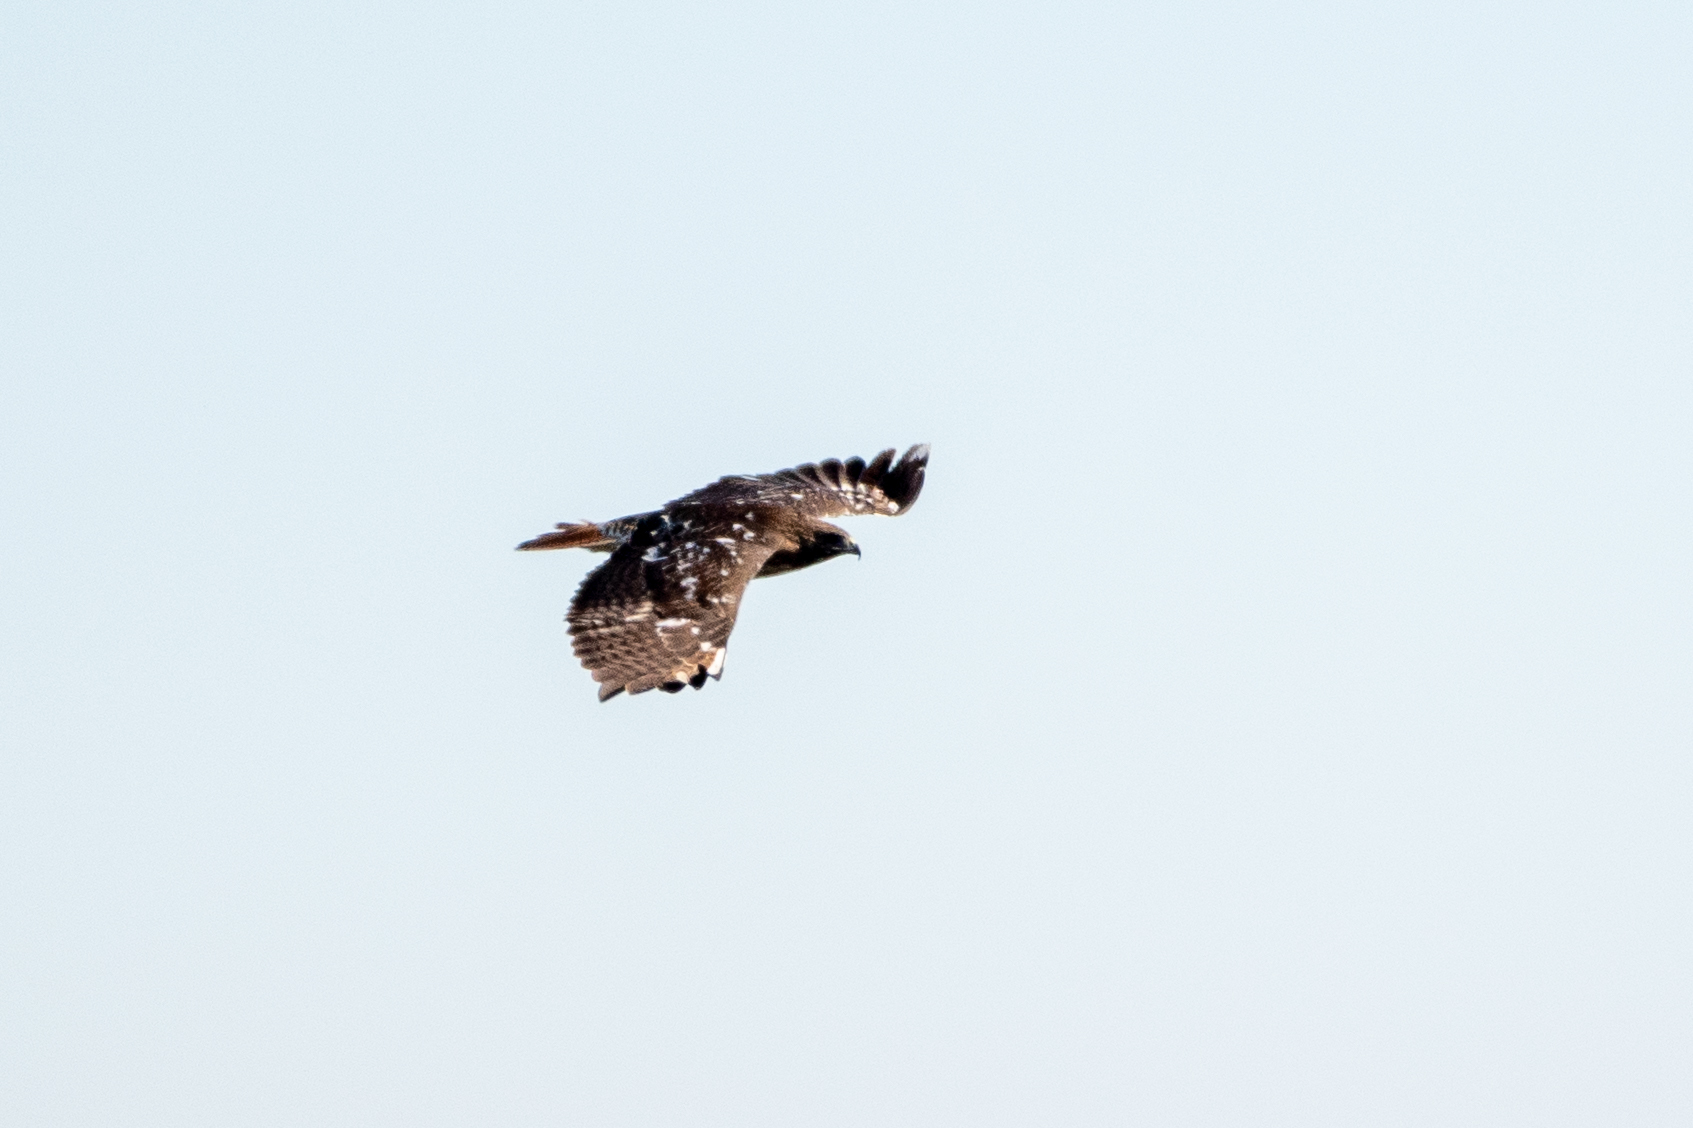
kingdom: Animalia
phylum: Chordata
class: Aves
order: Accipitriformes
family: Accipitridae
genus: Buteo
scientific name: Buteo jamaicensis
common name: Red-tailed hawk
